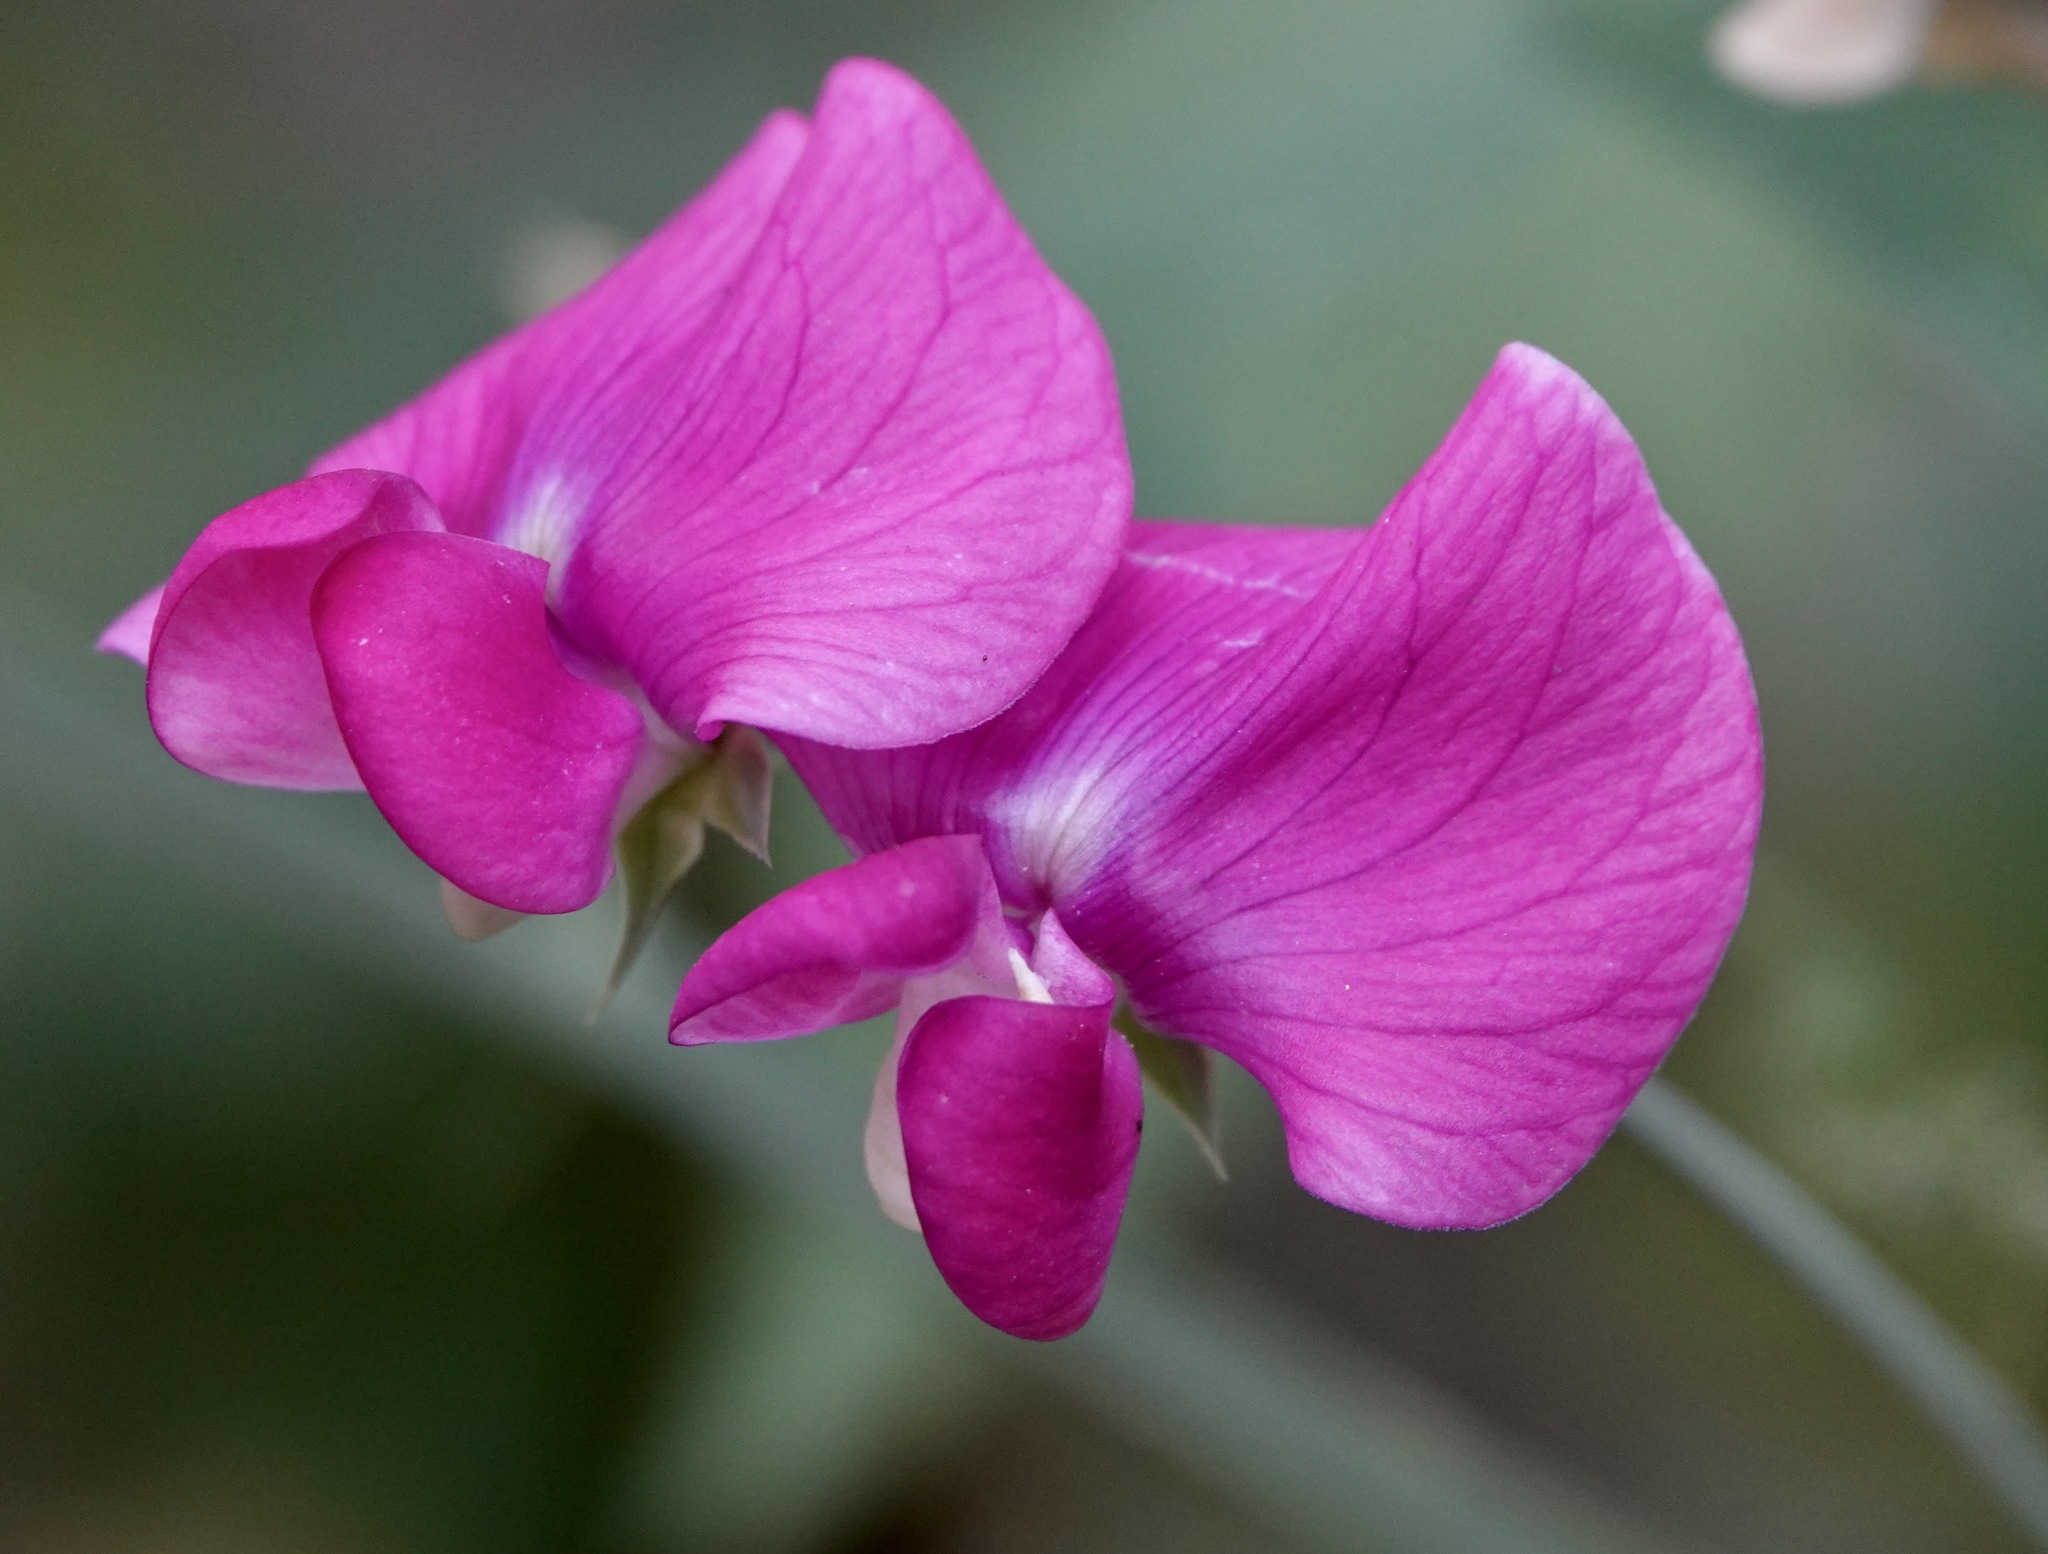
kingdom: Plantae
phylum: Tracheophyta
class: Magnoliopsida
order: Fabales
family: Fabaceae
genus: Lathyrus
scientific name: Lathyrus latifolius
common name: Perennial pea
